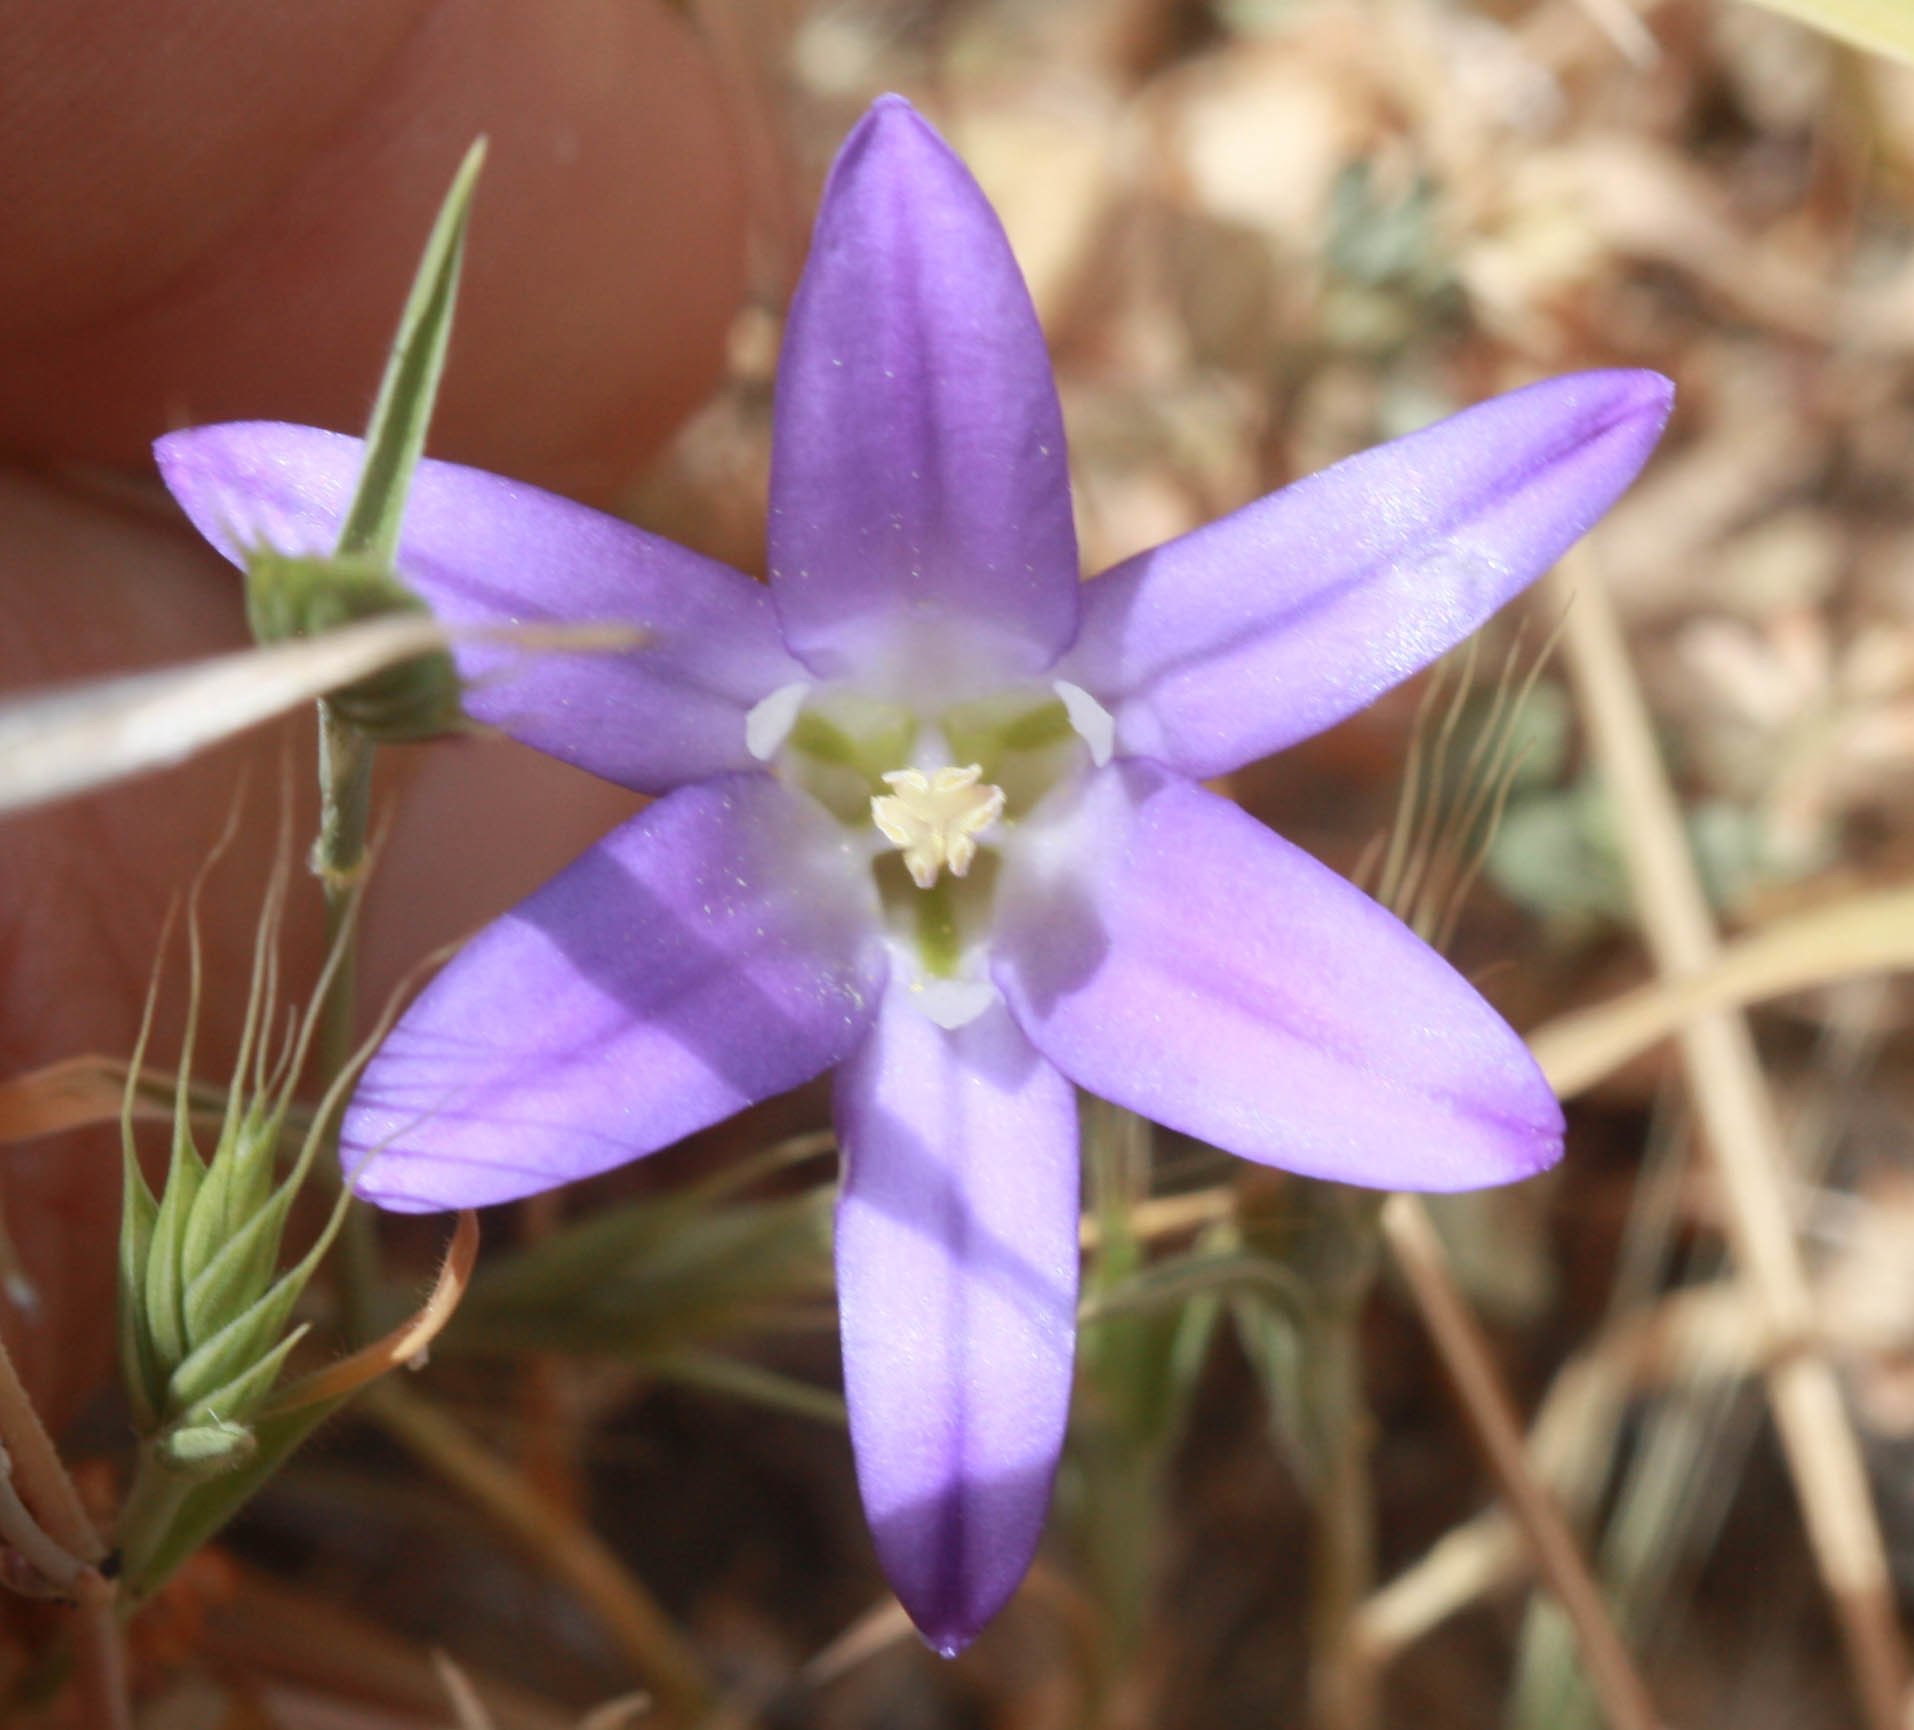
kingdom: Plantae
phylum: Tracheophyta
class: Liliopsida
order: Asparagales
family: Asparagaceae
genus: Brodiaea
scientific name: Brodiaea elegans
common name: Elegant cluster-lily
